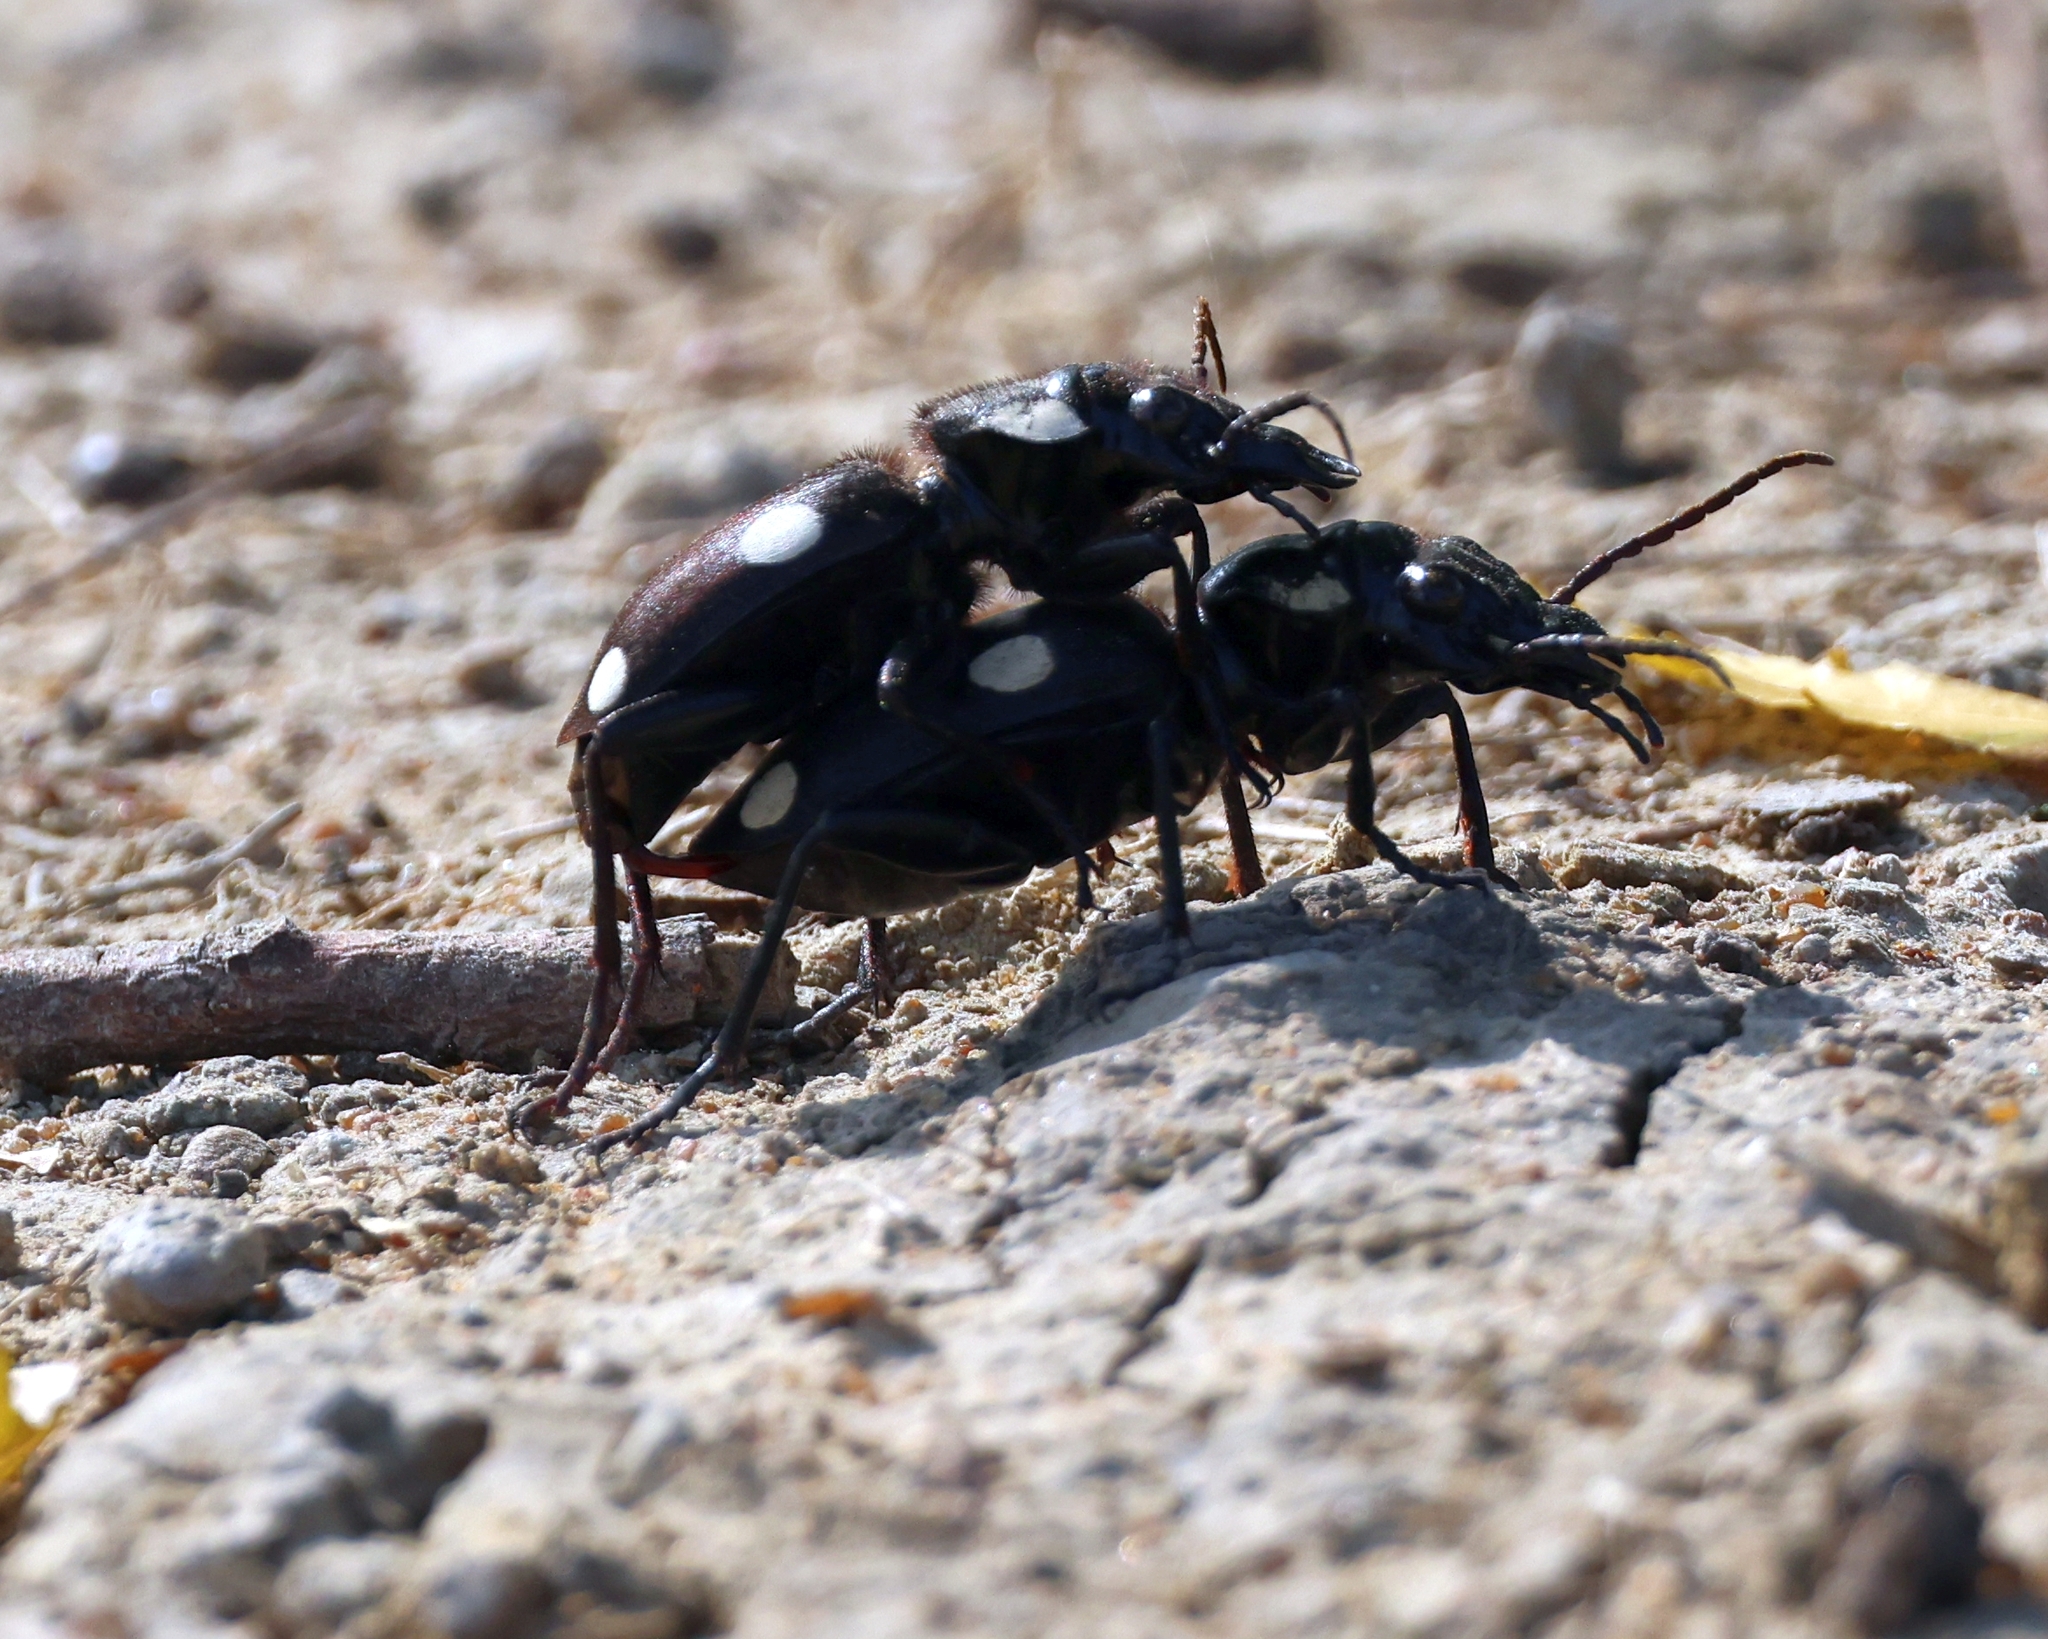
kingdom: Animalia
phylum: Arthropoda
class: Insecta
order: Coleoptera
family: Carabidae
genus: Anthia
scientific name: Anthia sexguttata
